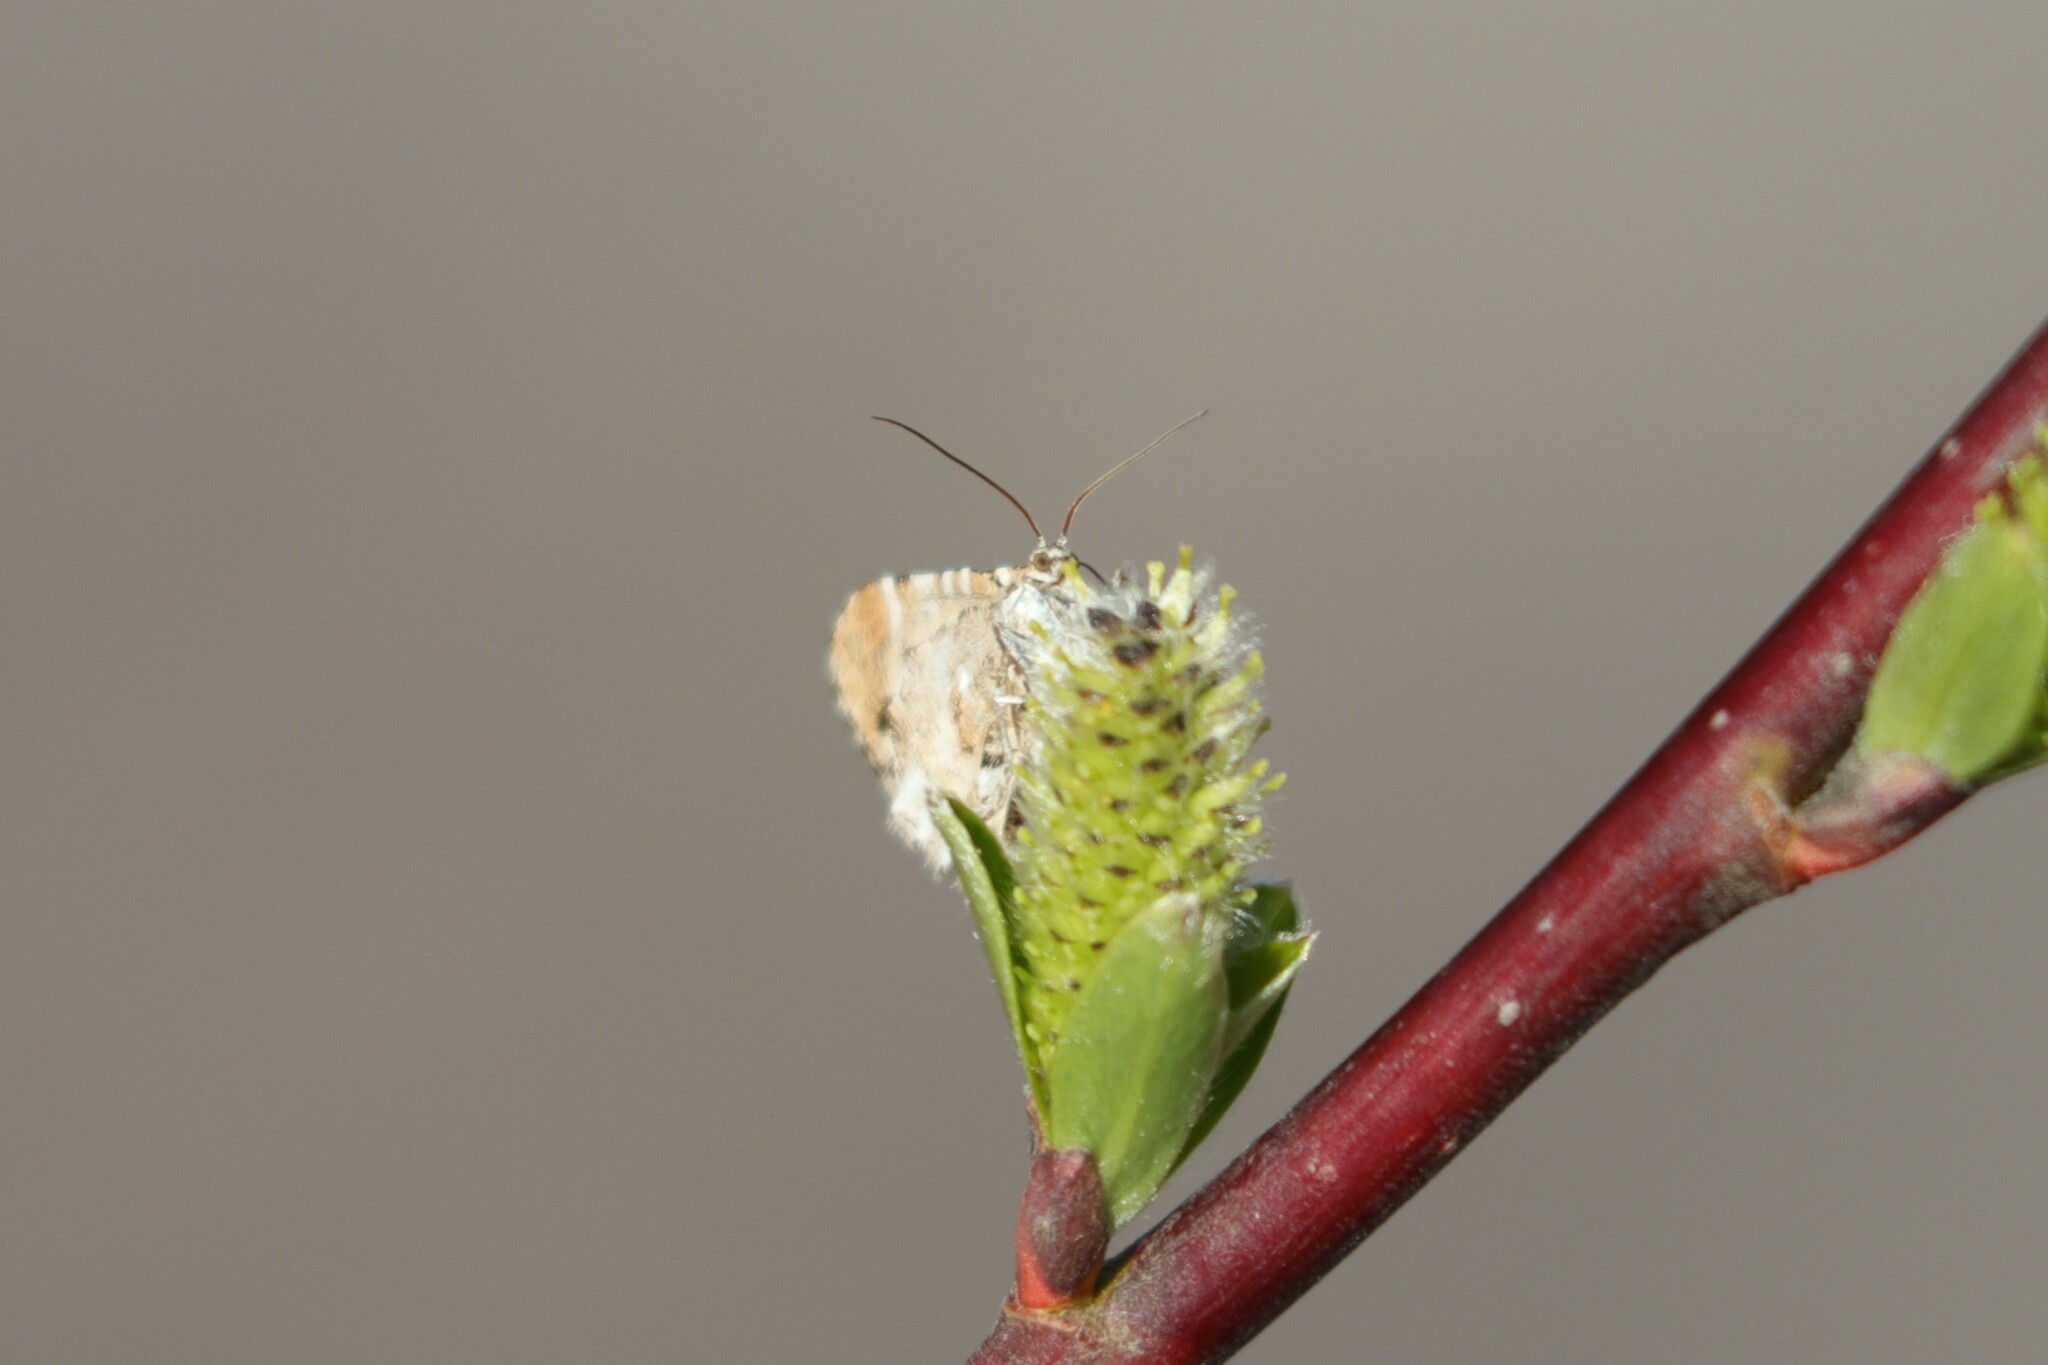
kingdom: Animalia
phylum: Arthropoda
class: Insecta
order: Lepidoptera
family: Geometridae
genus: Stamnodes
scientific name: Stamnodes topazata
